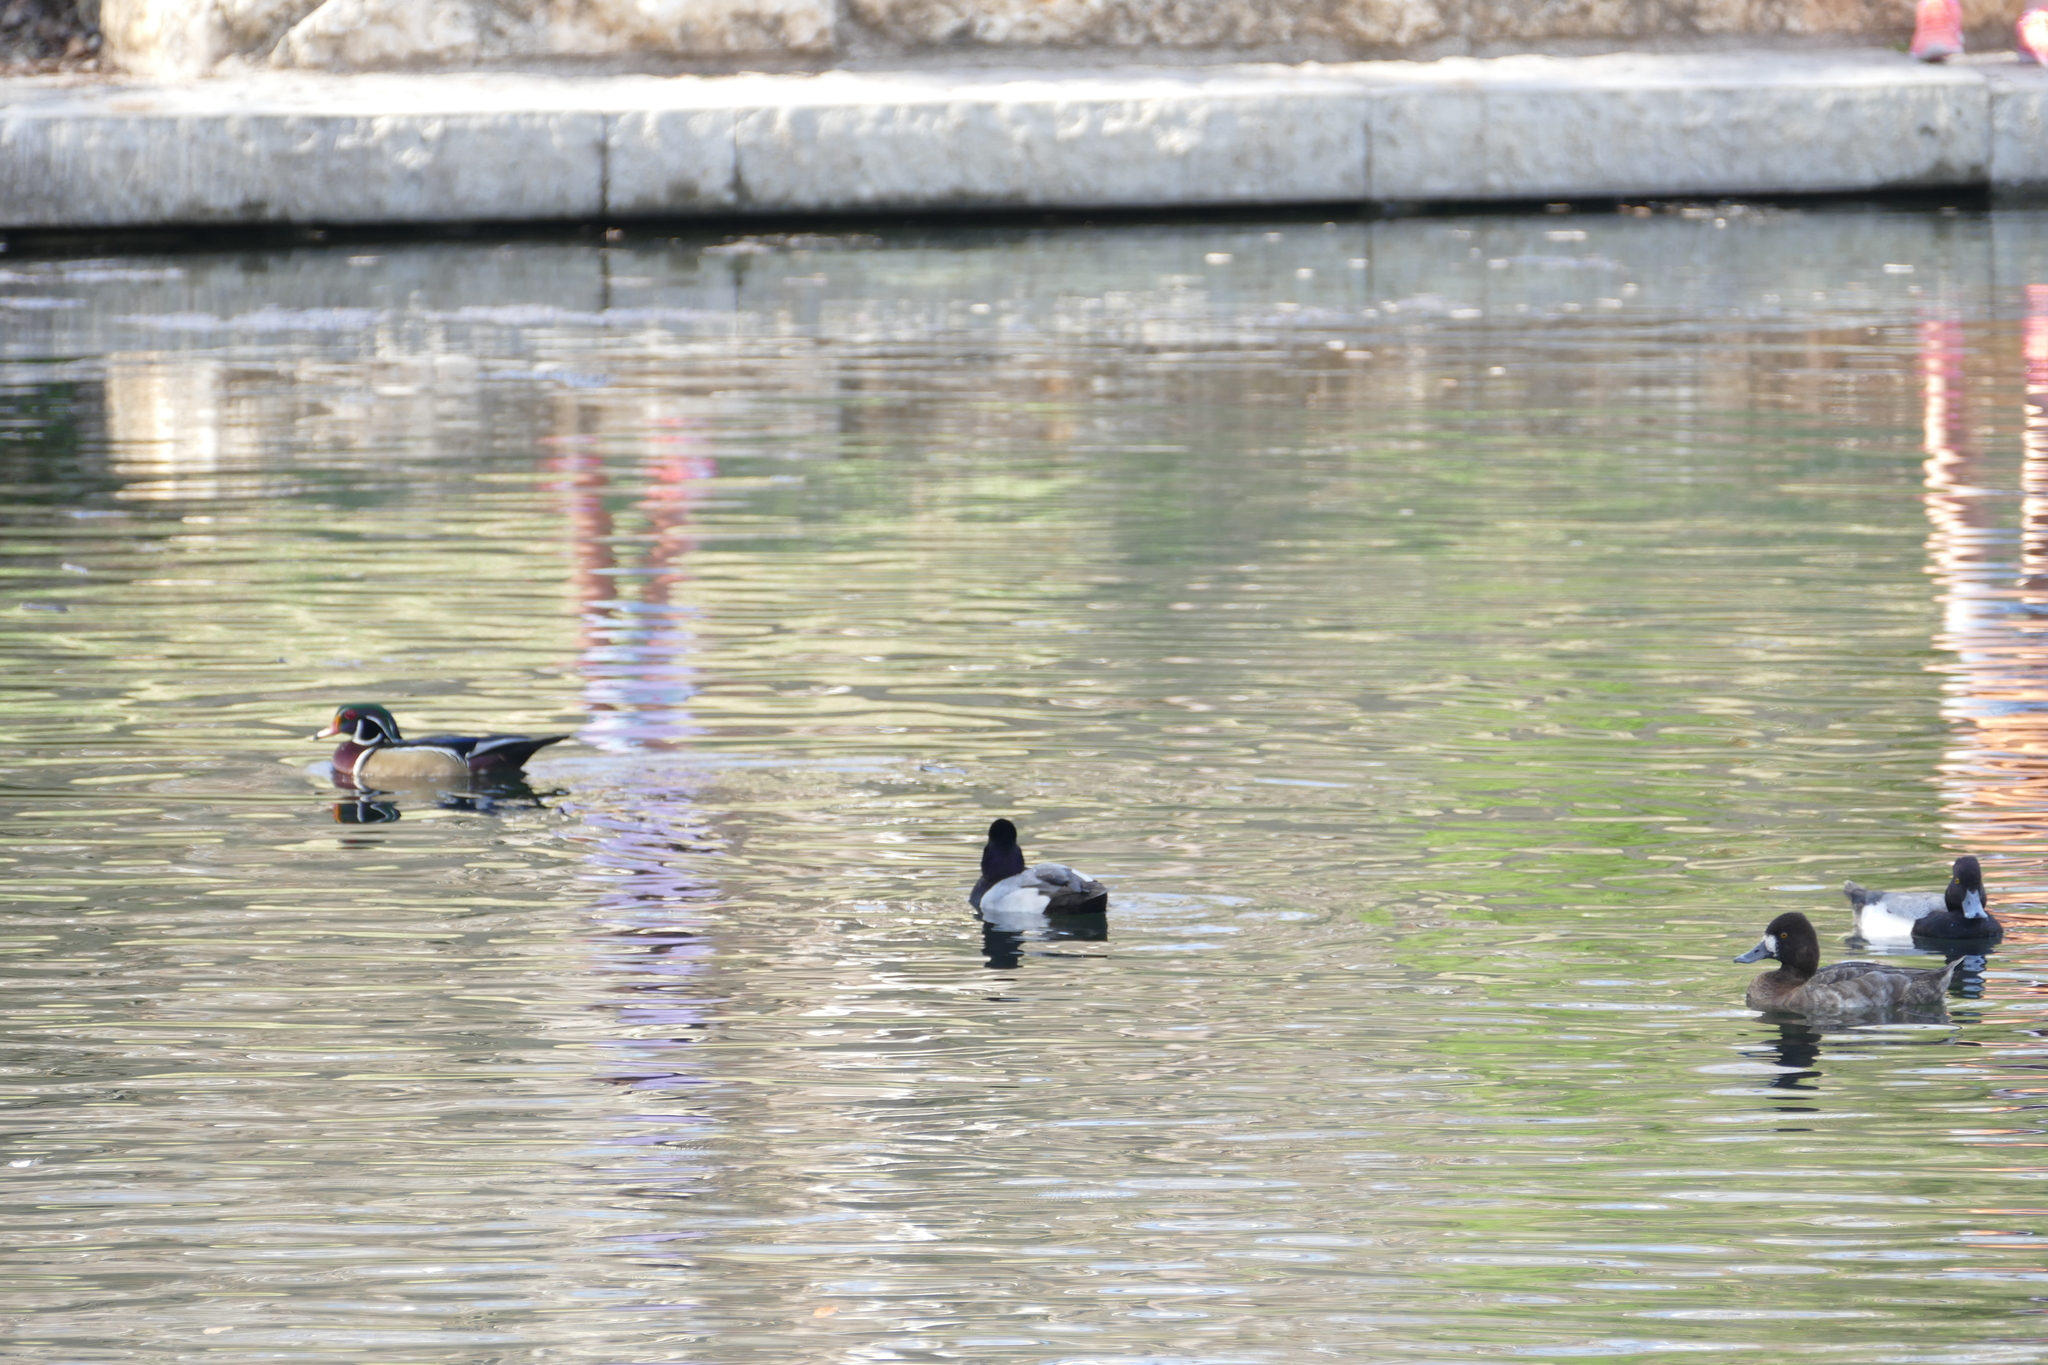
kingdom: Animalia
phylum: Chordata
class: Aves
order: Anseriformes
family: Anatidae
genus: Aythya
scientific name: Aythya affinis
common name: Lesser scaup
